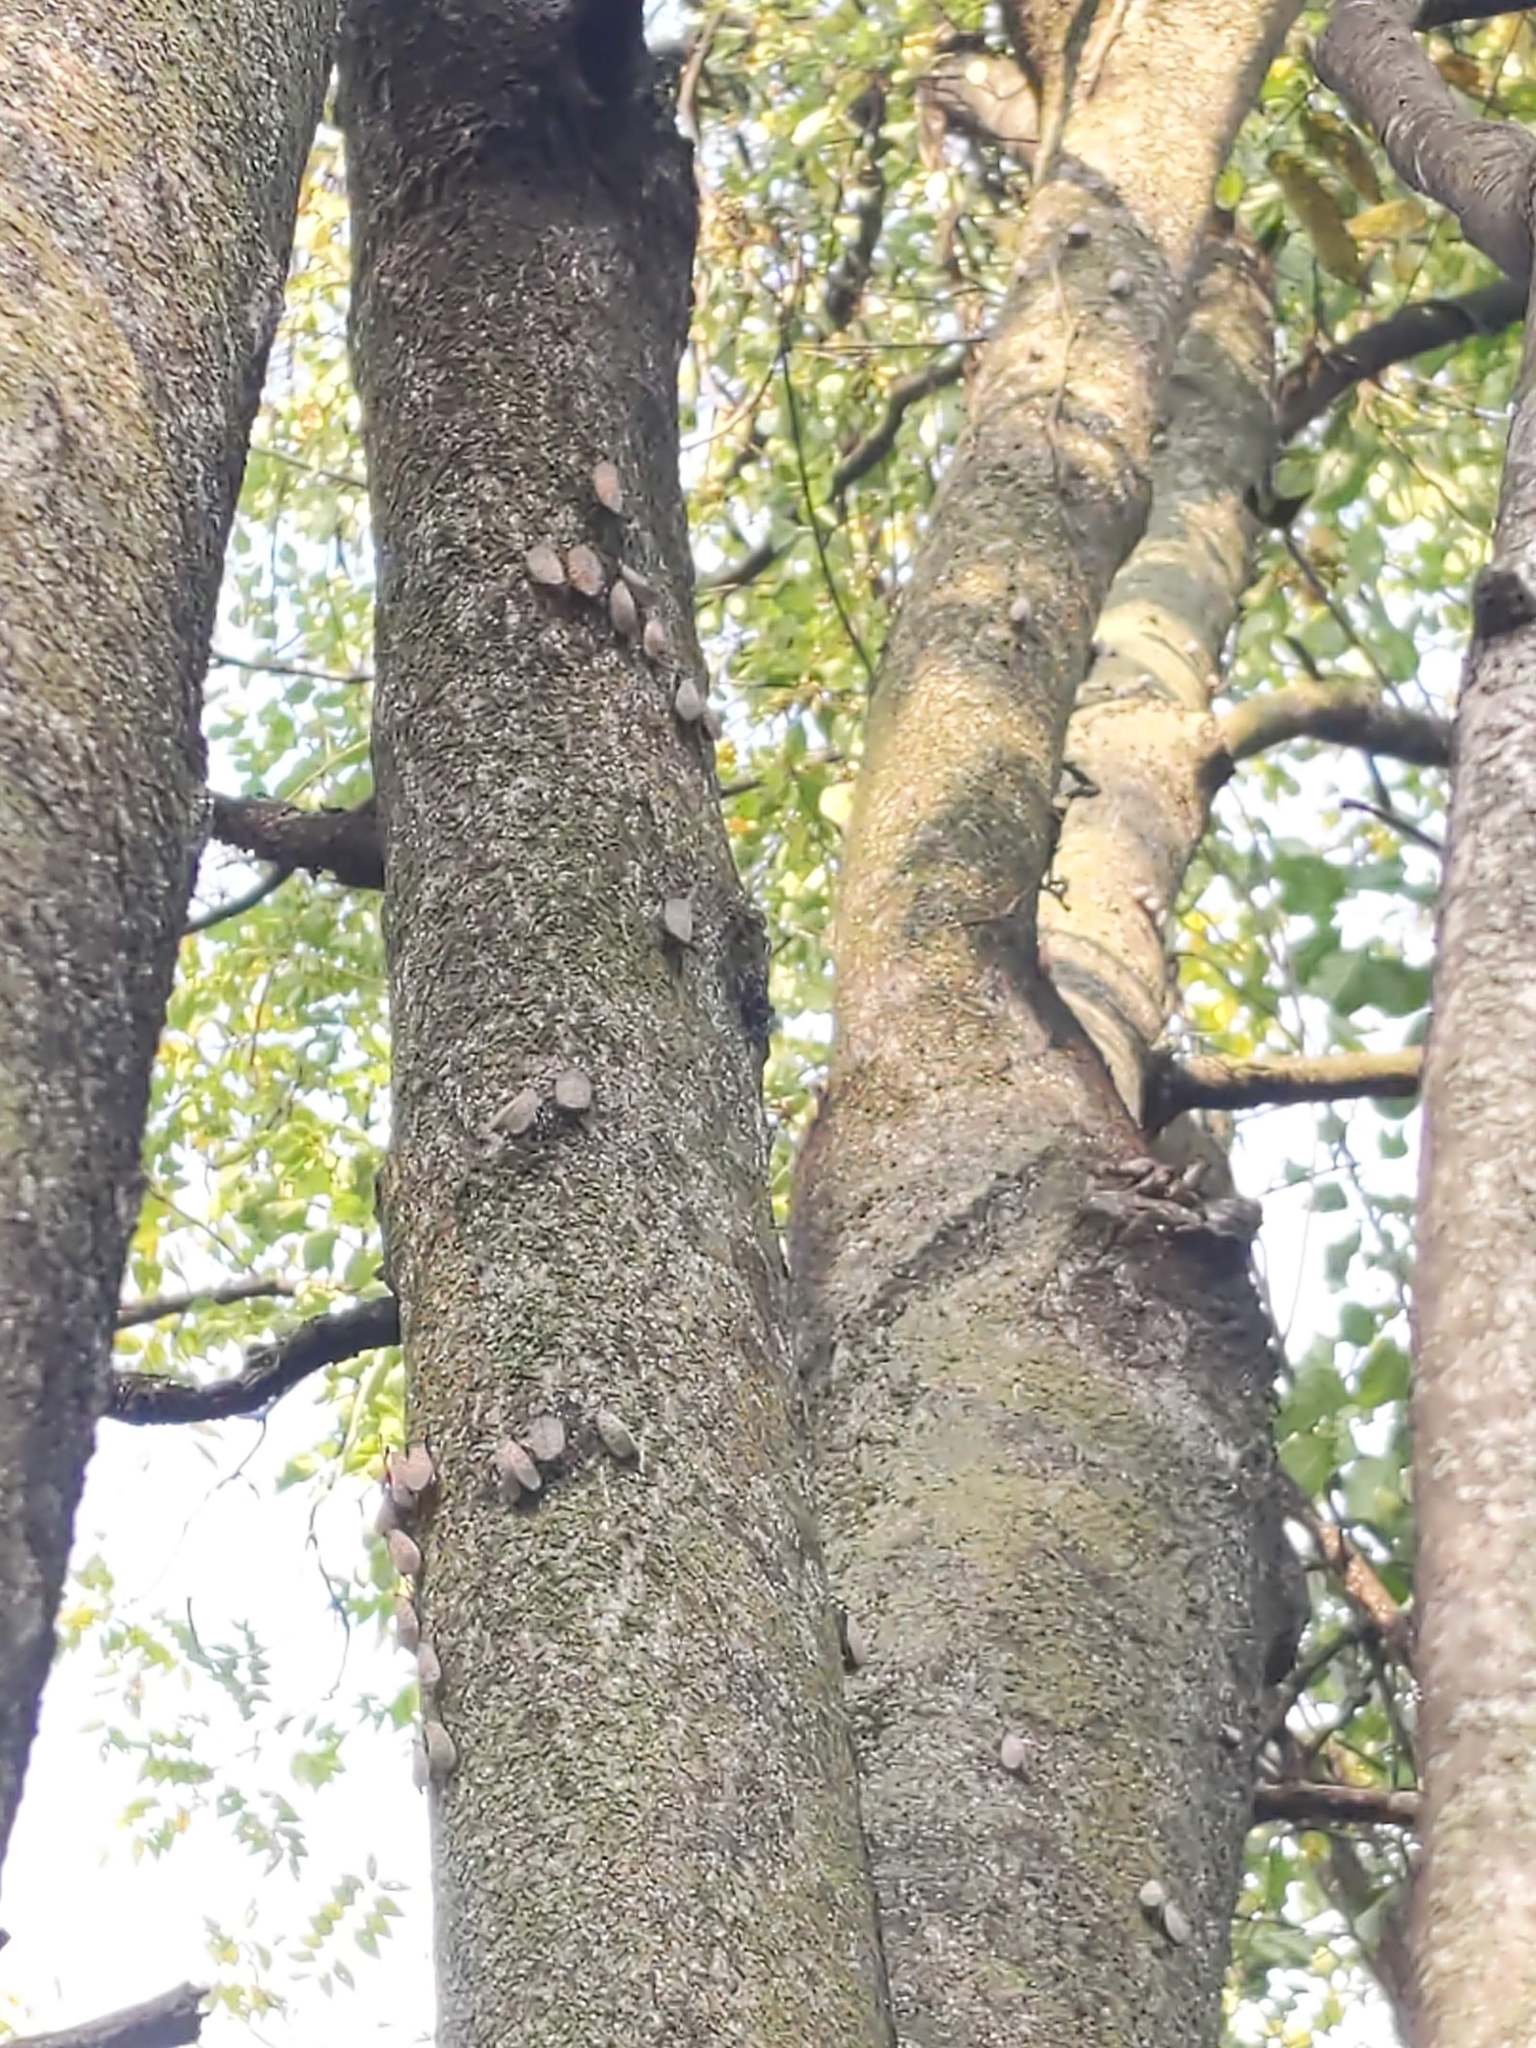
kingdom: Animalia
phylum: Arthropoda
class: Insecta
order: Hemiptera
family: Fulgoridae
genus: Lycorma
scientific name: Lycorma delicatula
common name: Spotted lanternfly
